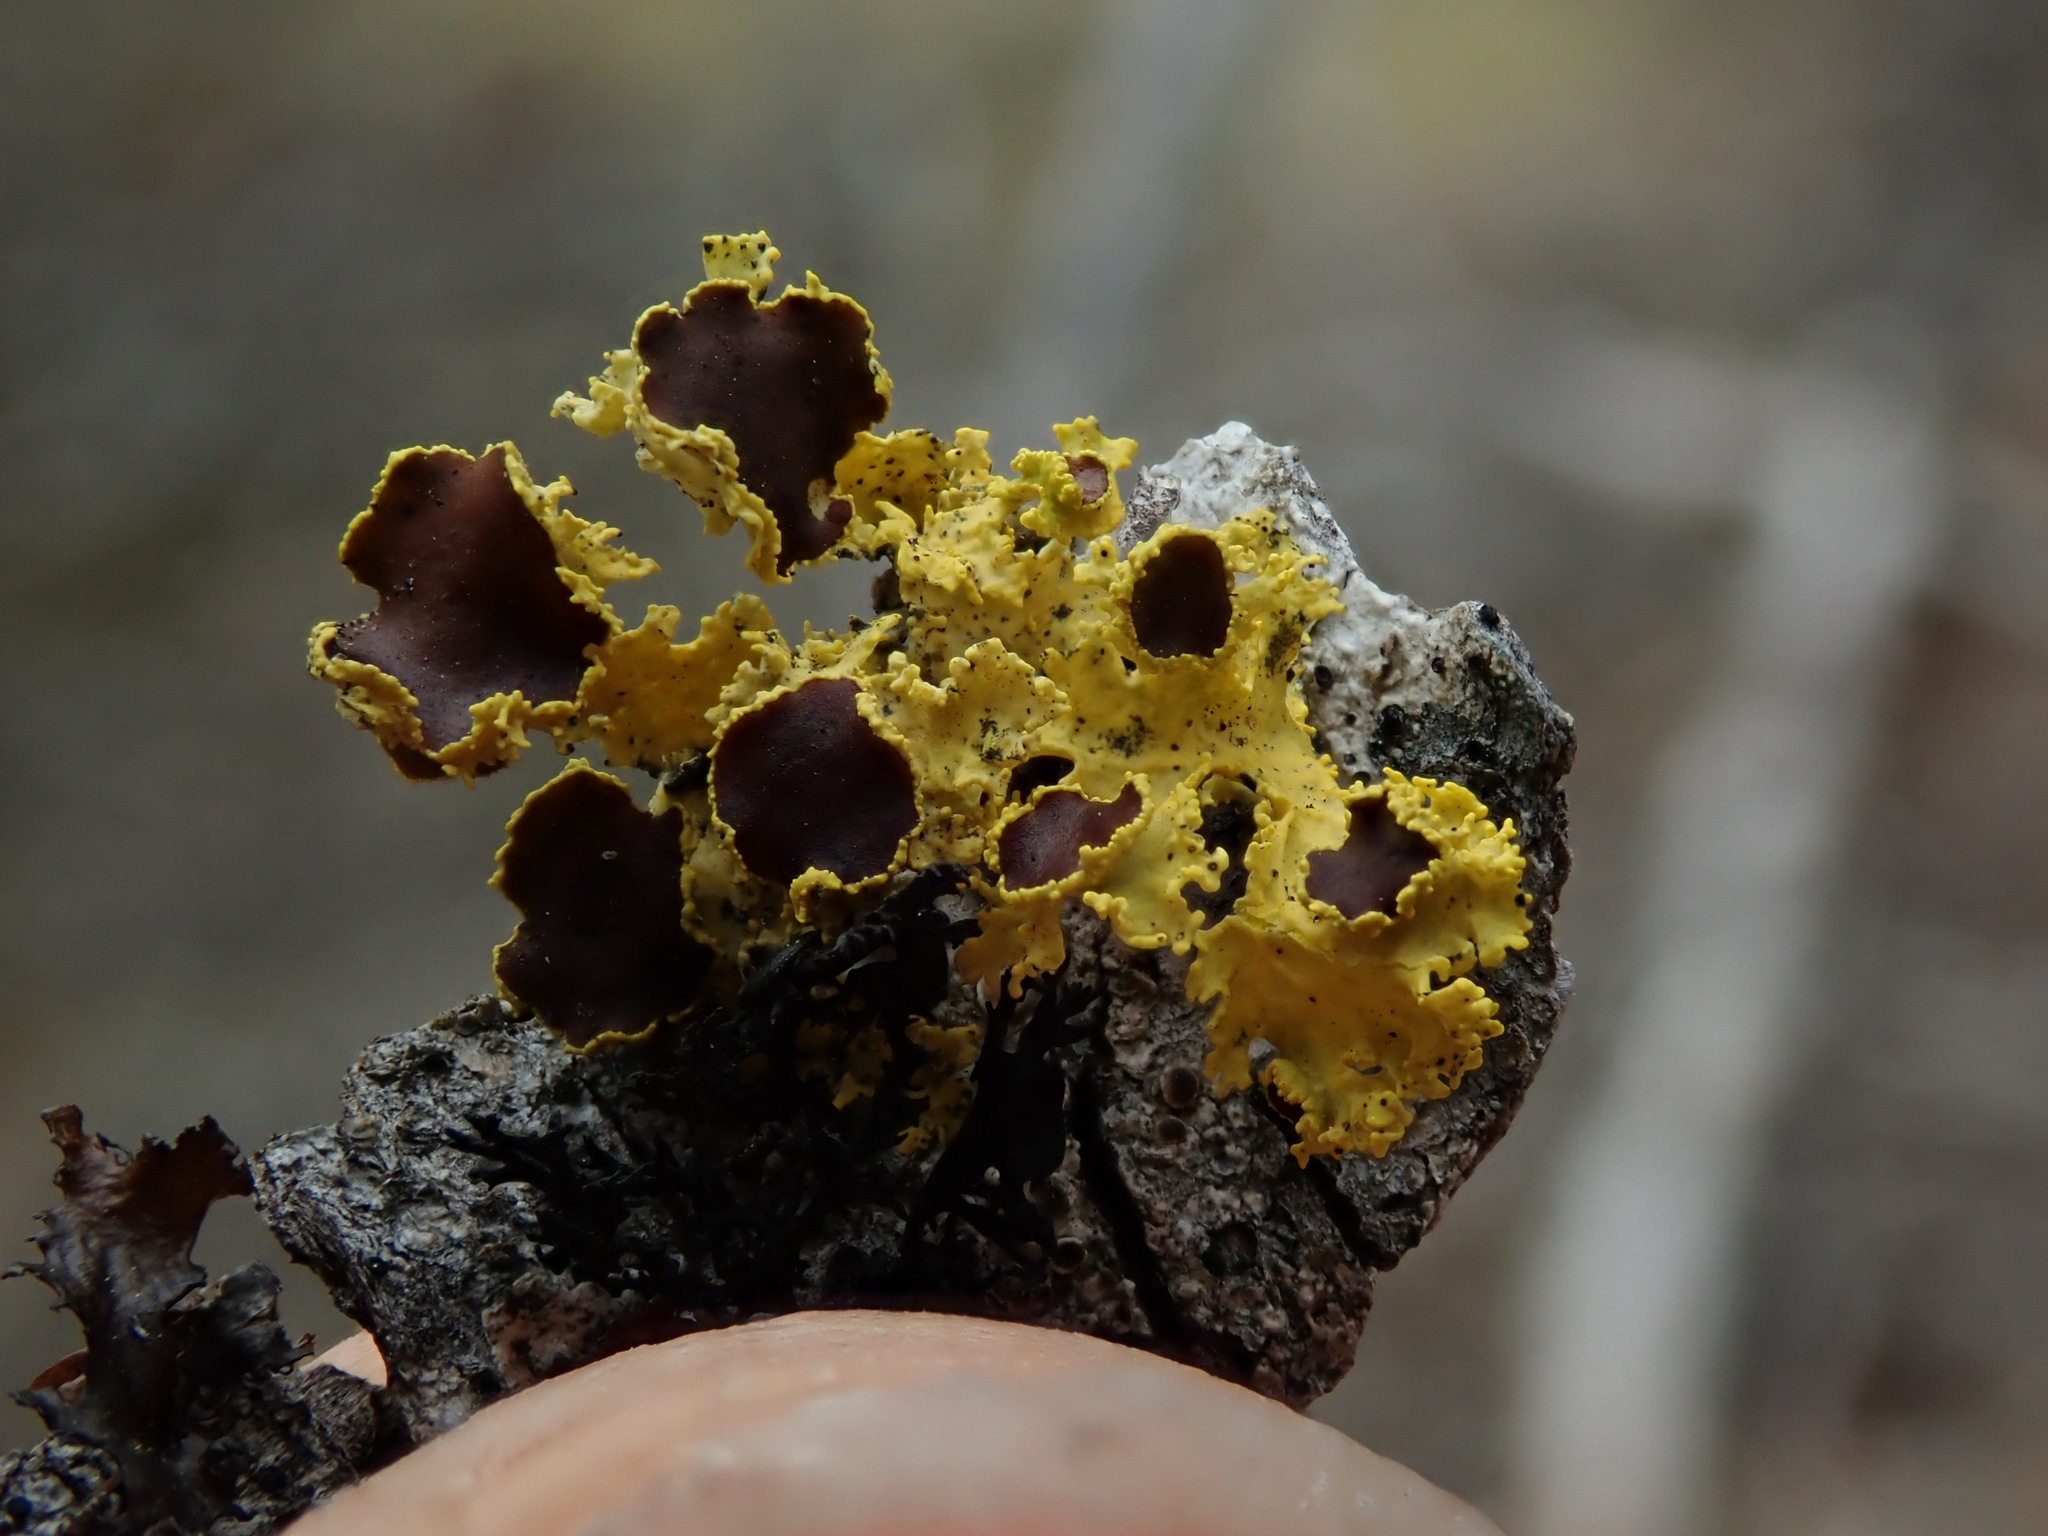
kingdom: Fungi
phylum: Ascomycota
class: Lecanoromycetes
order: Lecanorales
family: Parmeliaceae
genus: Vulpicida
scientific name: Vulpicida canadensis
